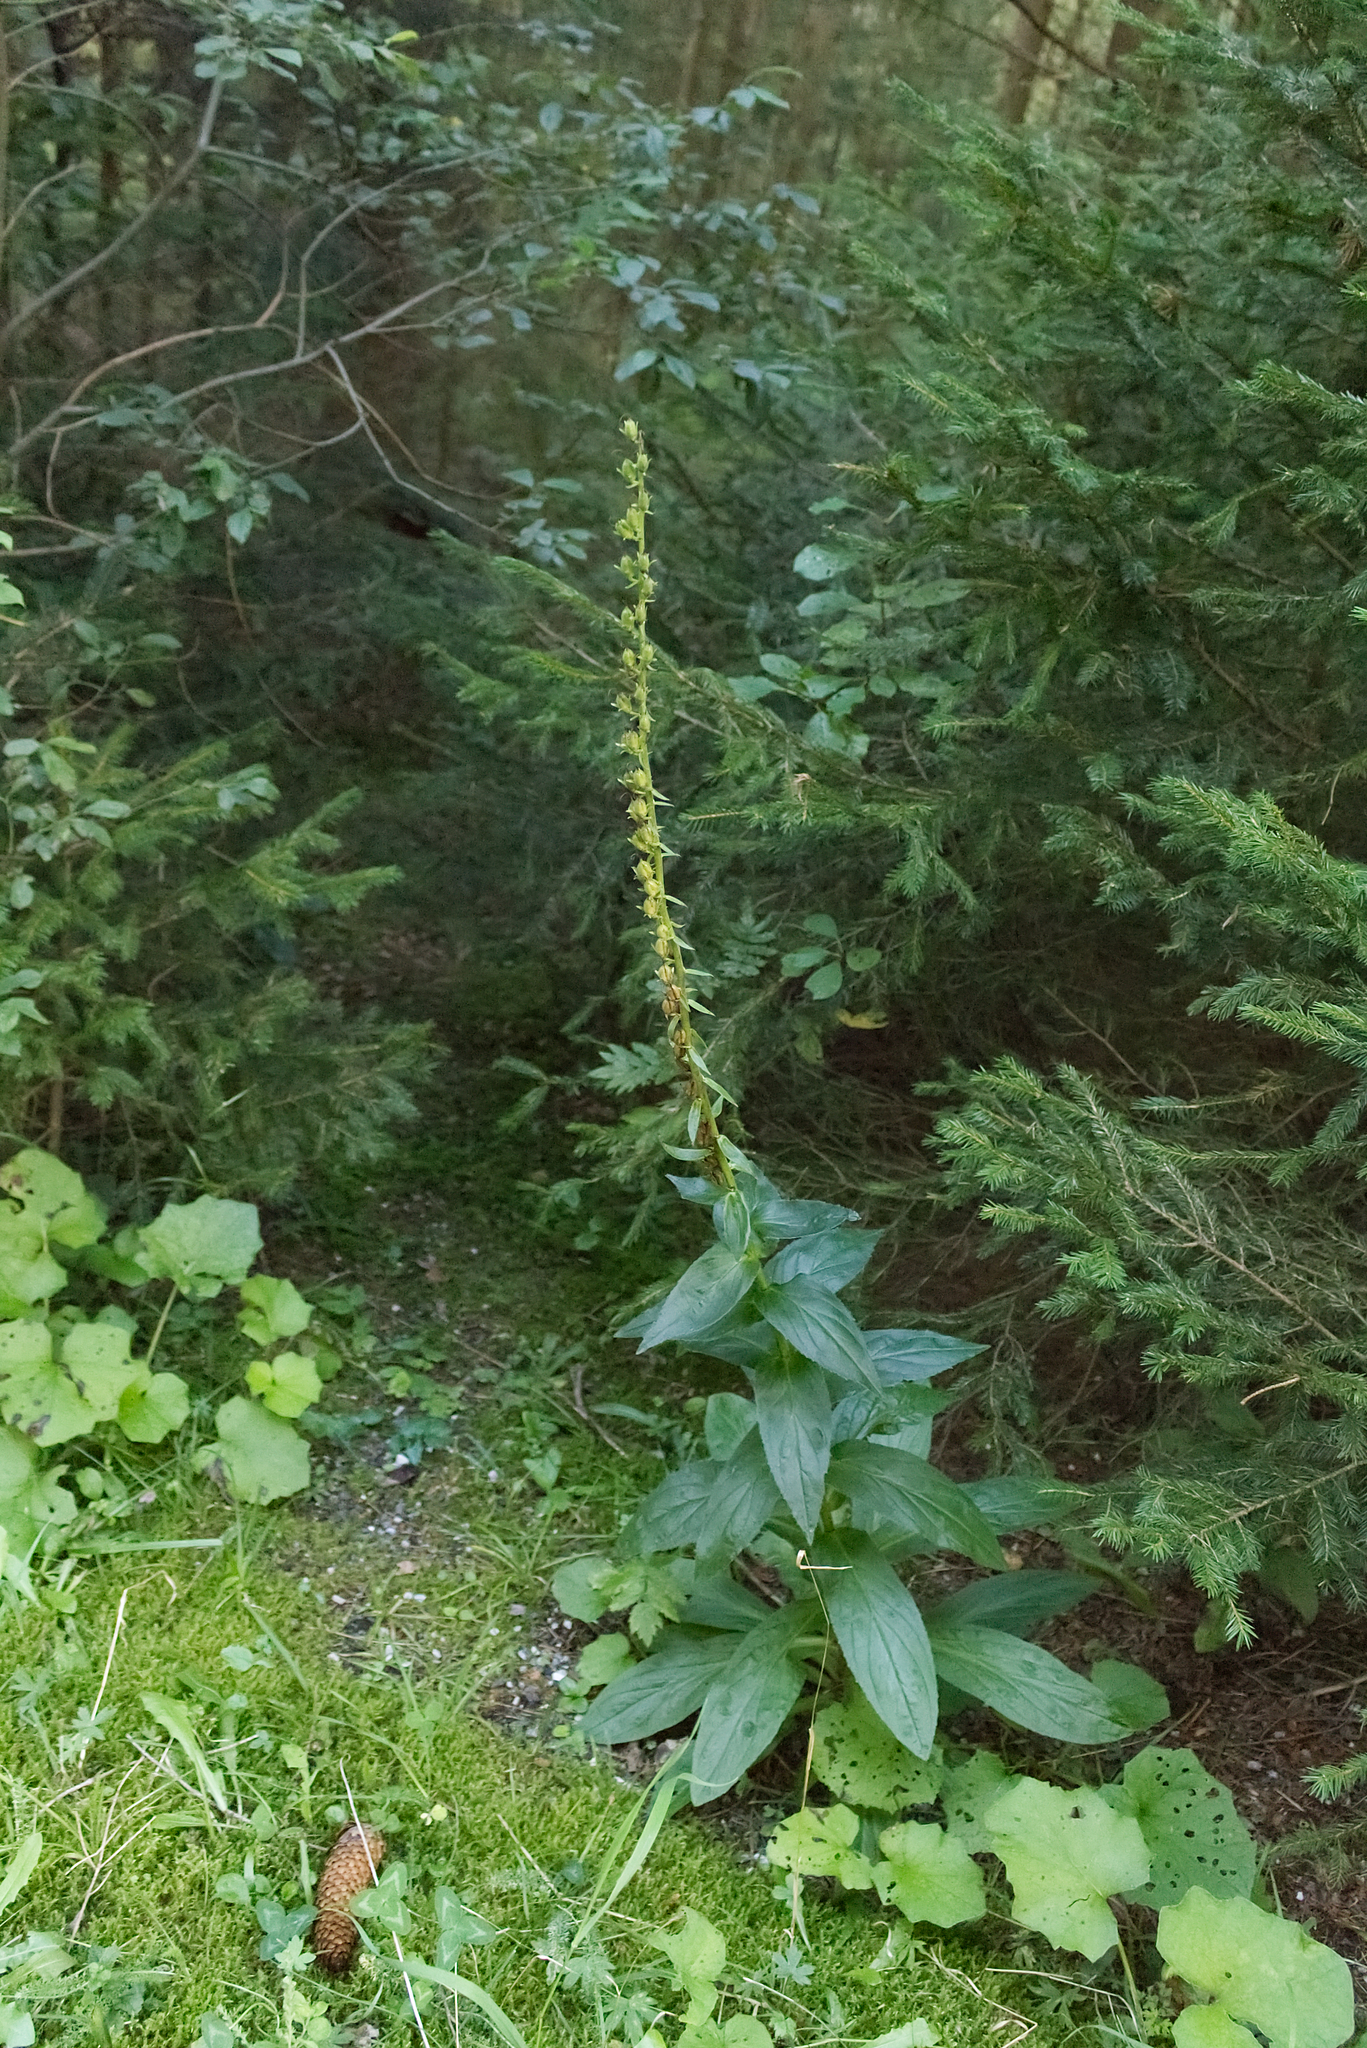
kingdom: Plantae
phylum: Tracheophyta
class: Magnoliopsida
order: Lamiales
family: Plantaginaceae
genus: Digitalis
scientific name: Digitalis grandiflora
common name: Yellow foxglove
